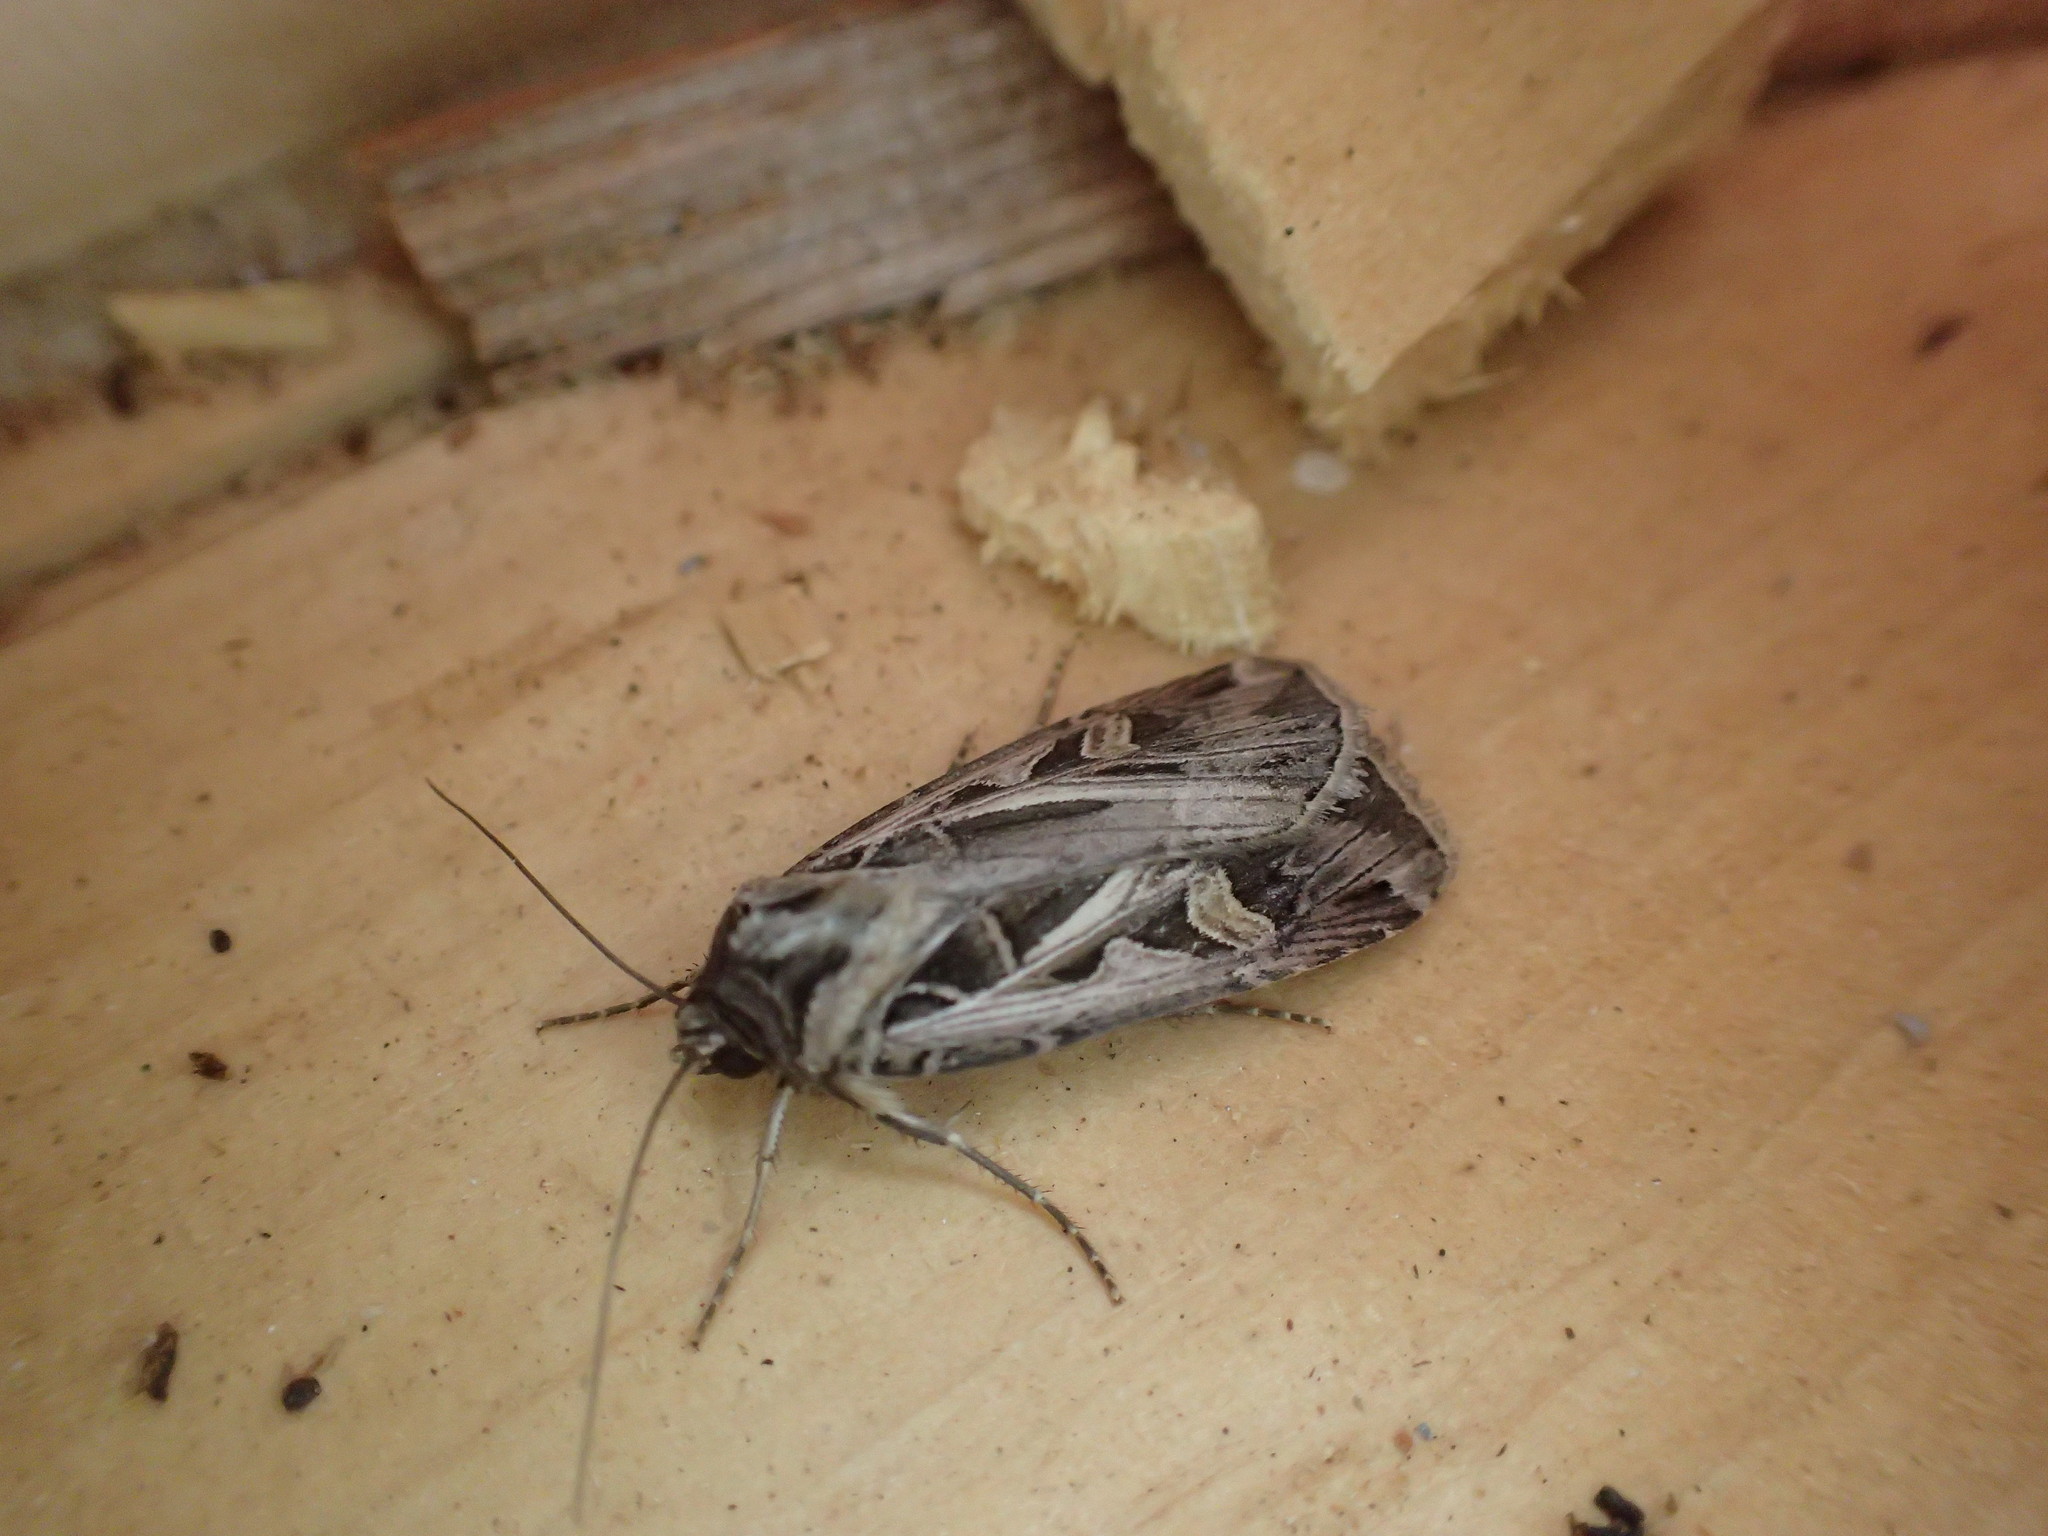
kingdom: Animalia
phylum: Arthropoda
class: Insecta
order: Lepidoptera
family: Noctuidae
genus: Feltia
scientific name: Feltia jaculifera
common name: Dingy cutworm moth
